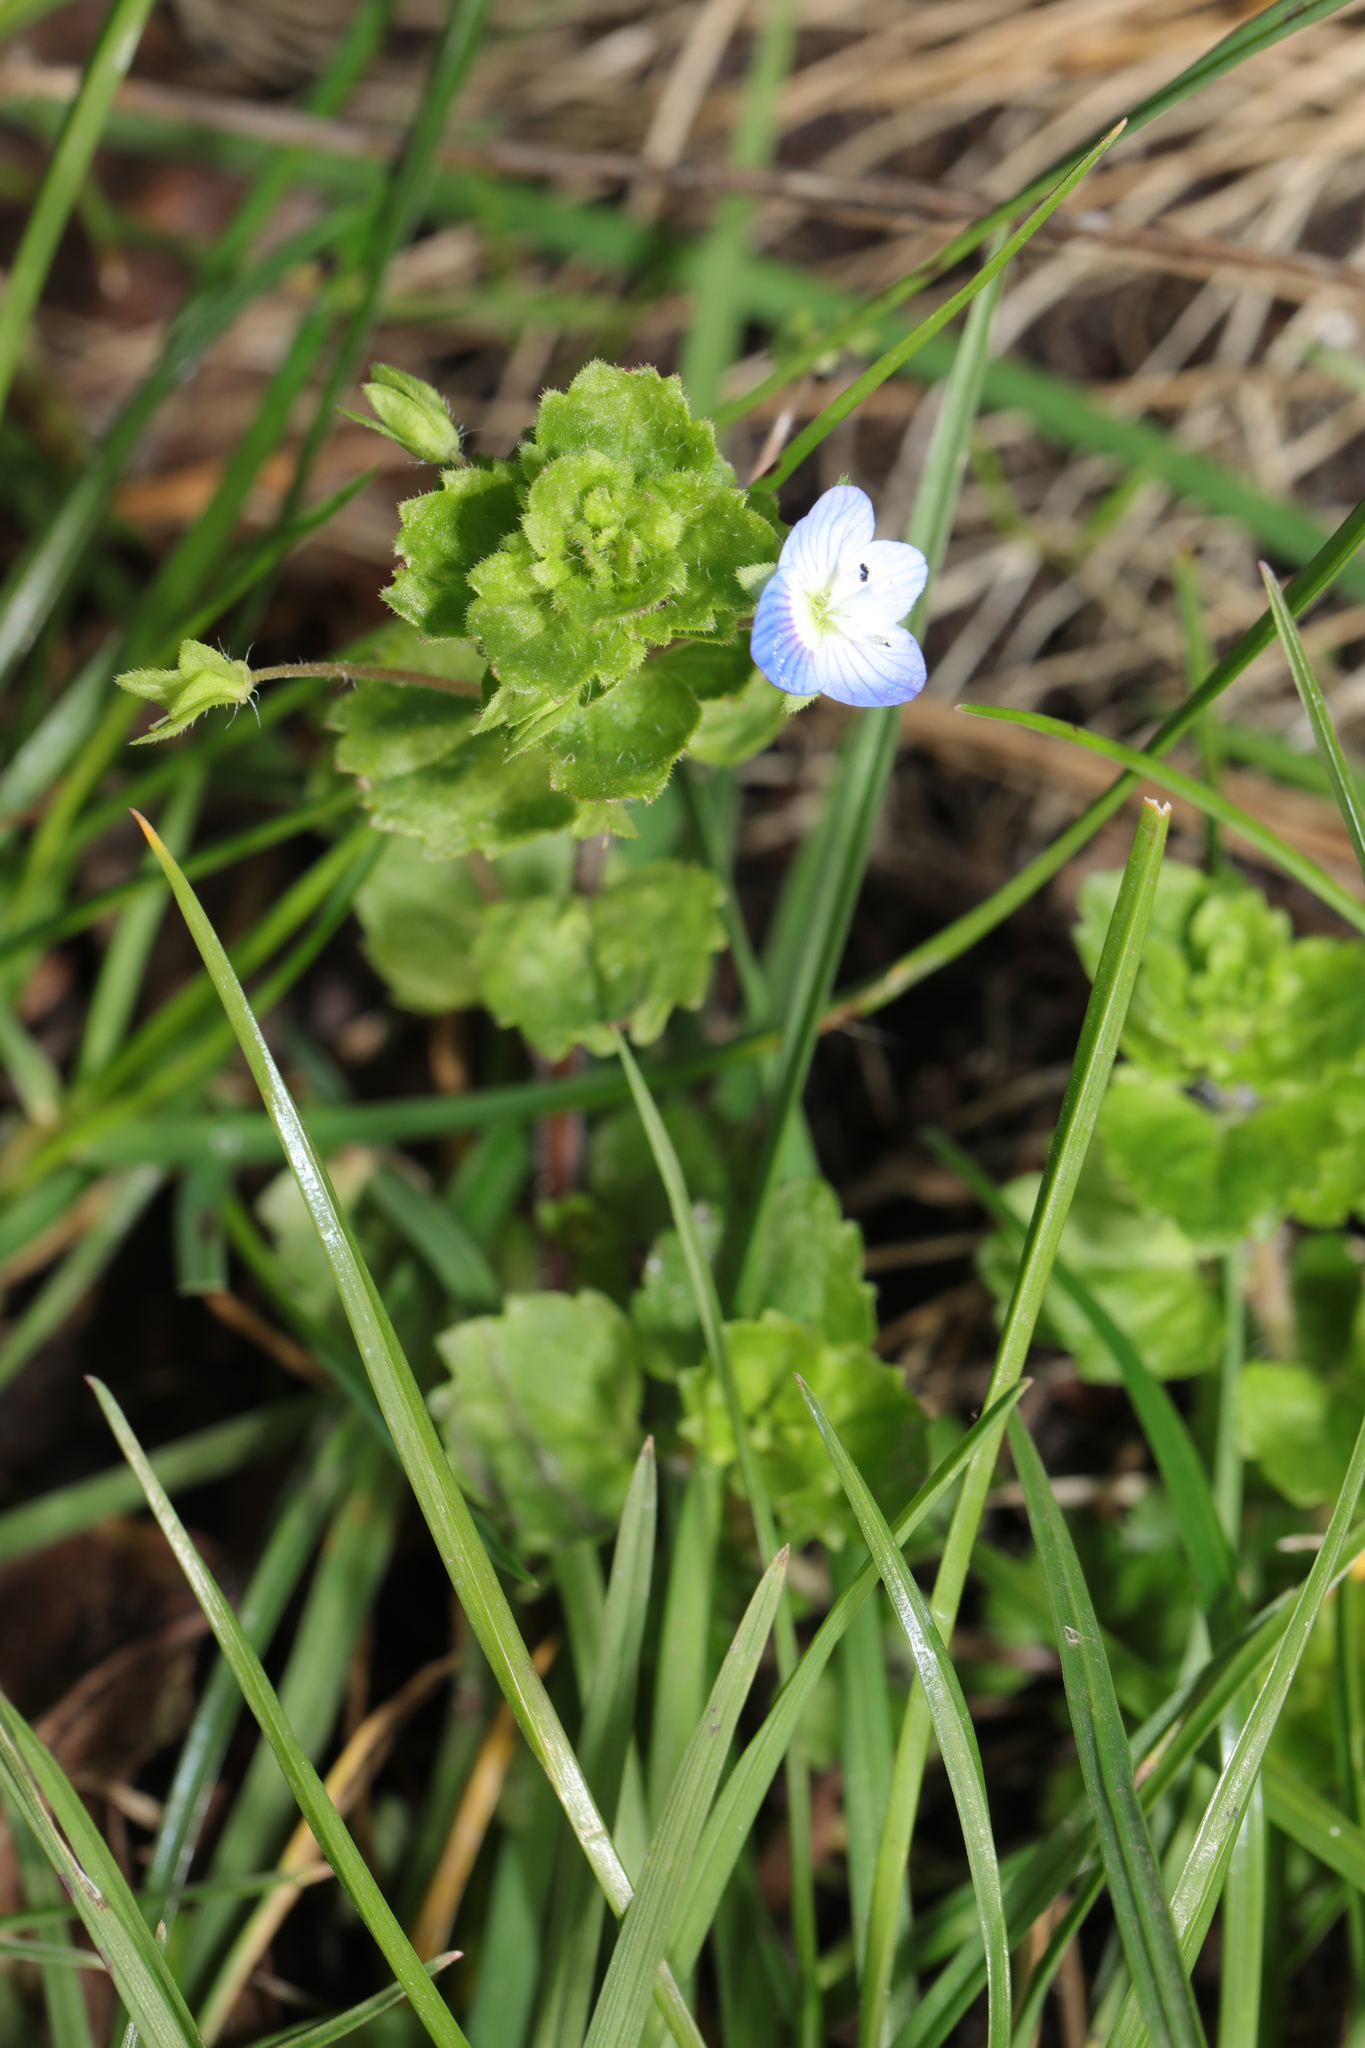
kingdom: Plantae
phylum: Tracheophyta
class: Magnoliopsida
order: Lamiales
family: Plantaginaceae
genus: Veronica
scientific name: Veronica persica
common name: Common field-speedwell
